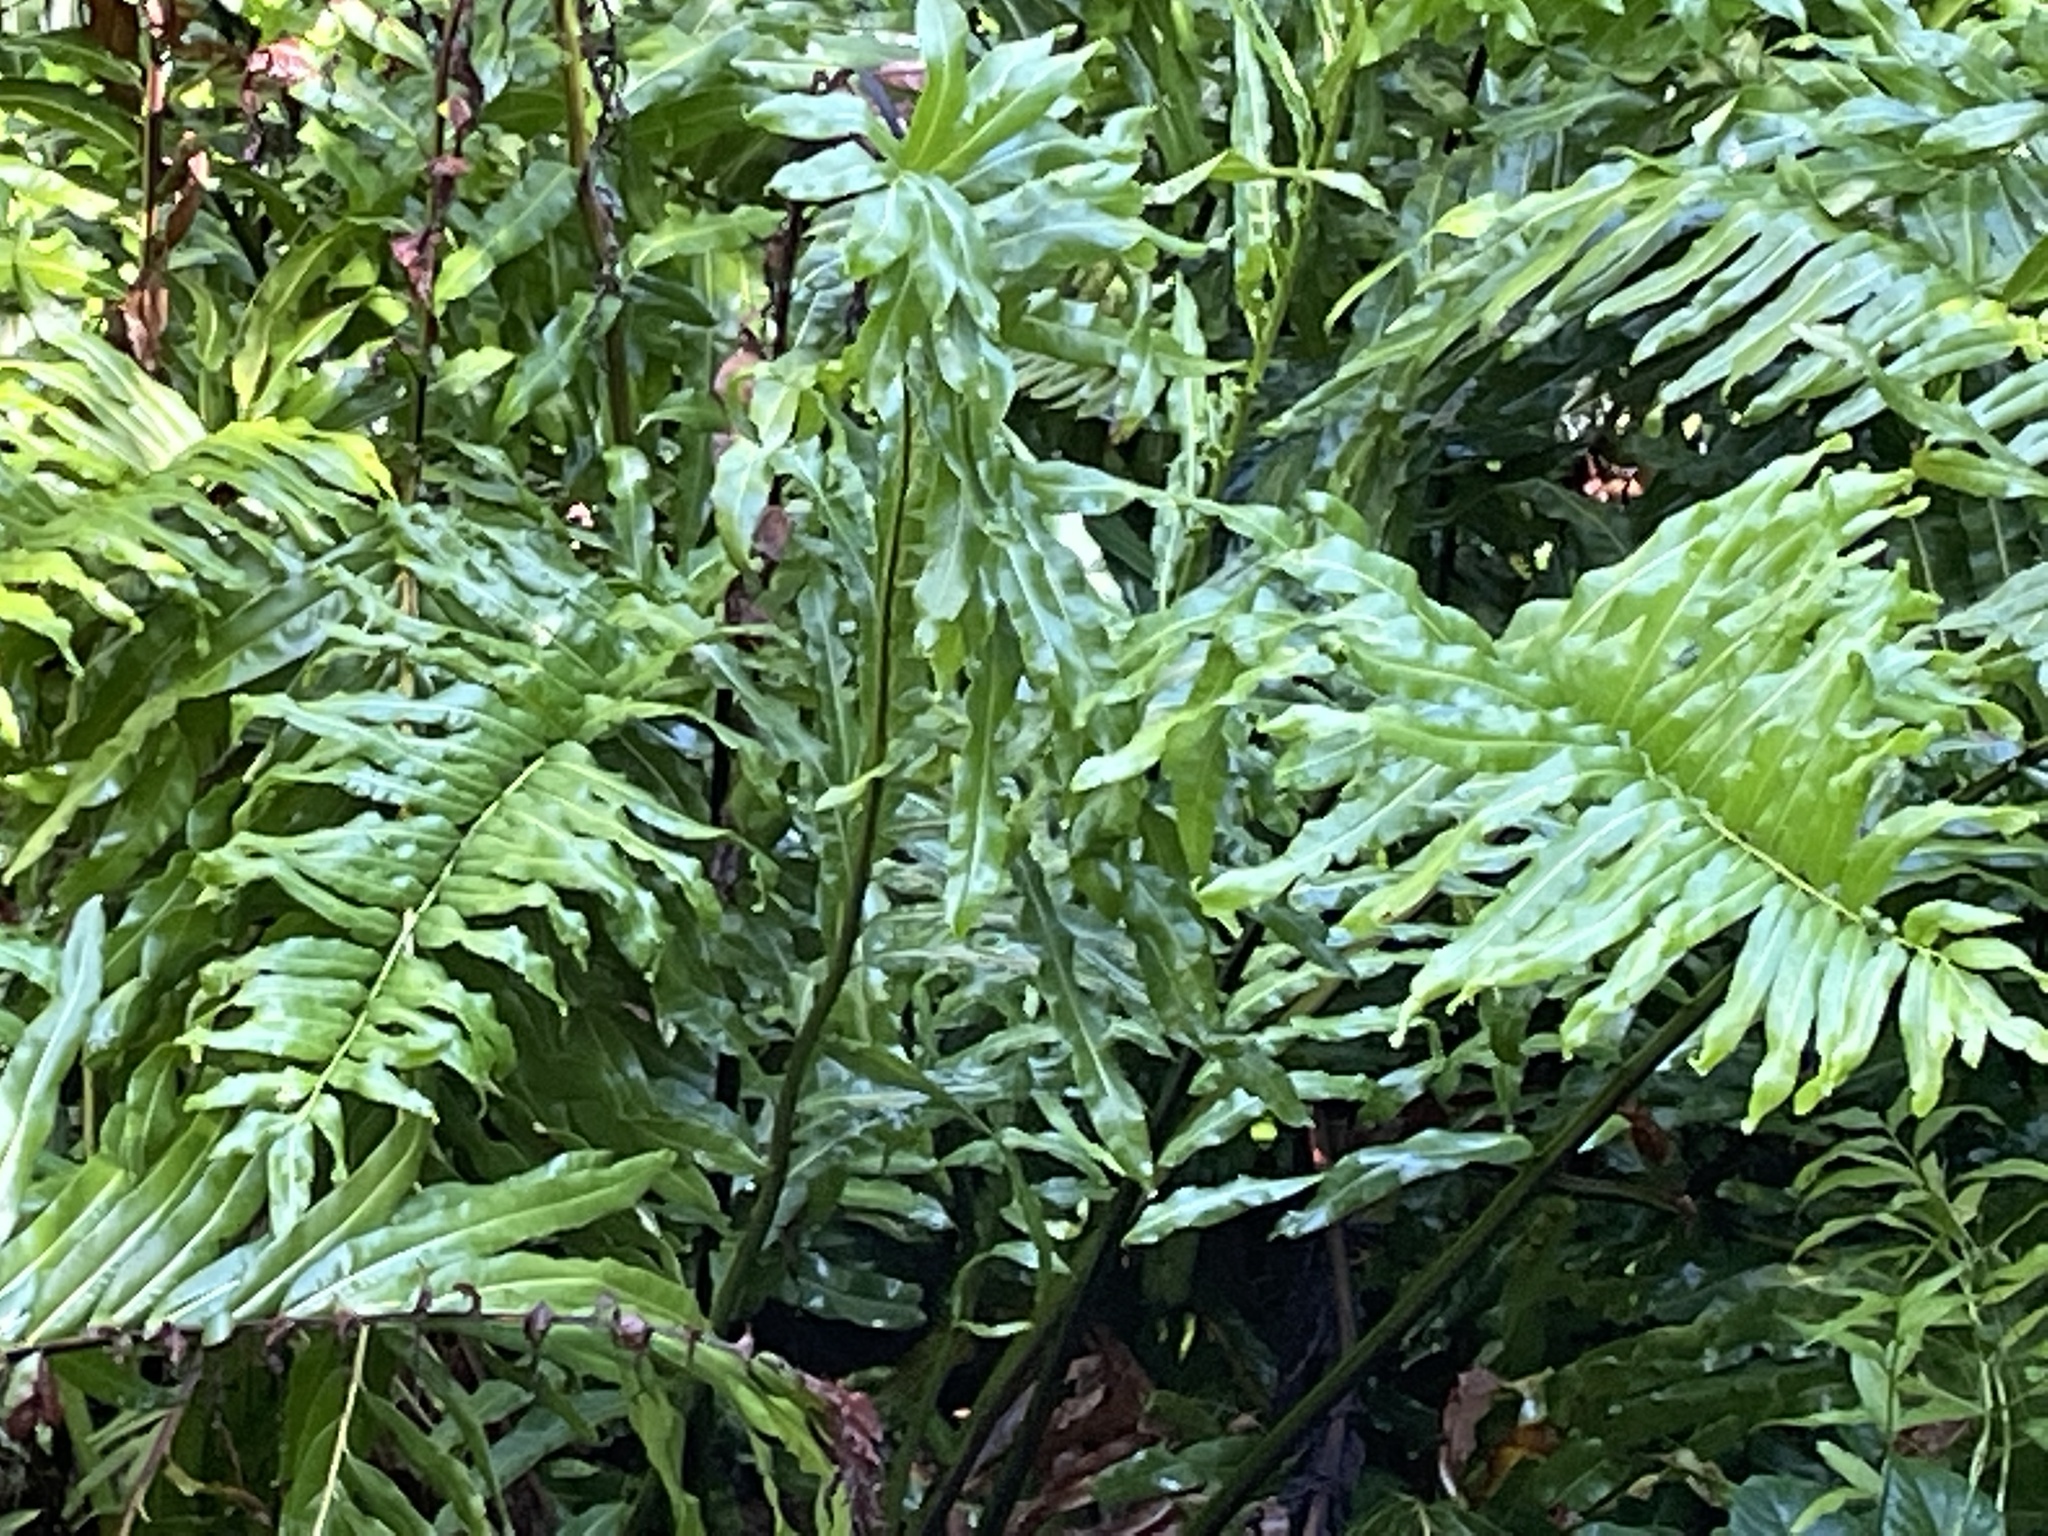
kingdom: Plantae
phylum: Tracheophyta
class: Polypodiopsida
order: Polypodiales
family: Pteridaceae
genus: Acrostichum
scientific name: Acrostichum danaeifolium
